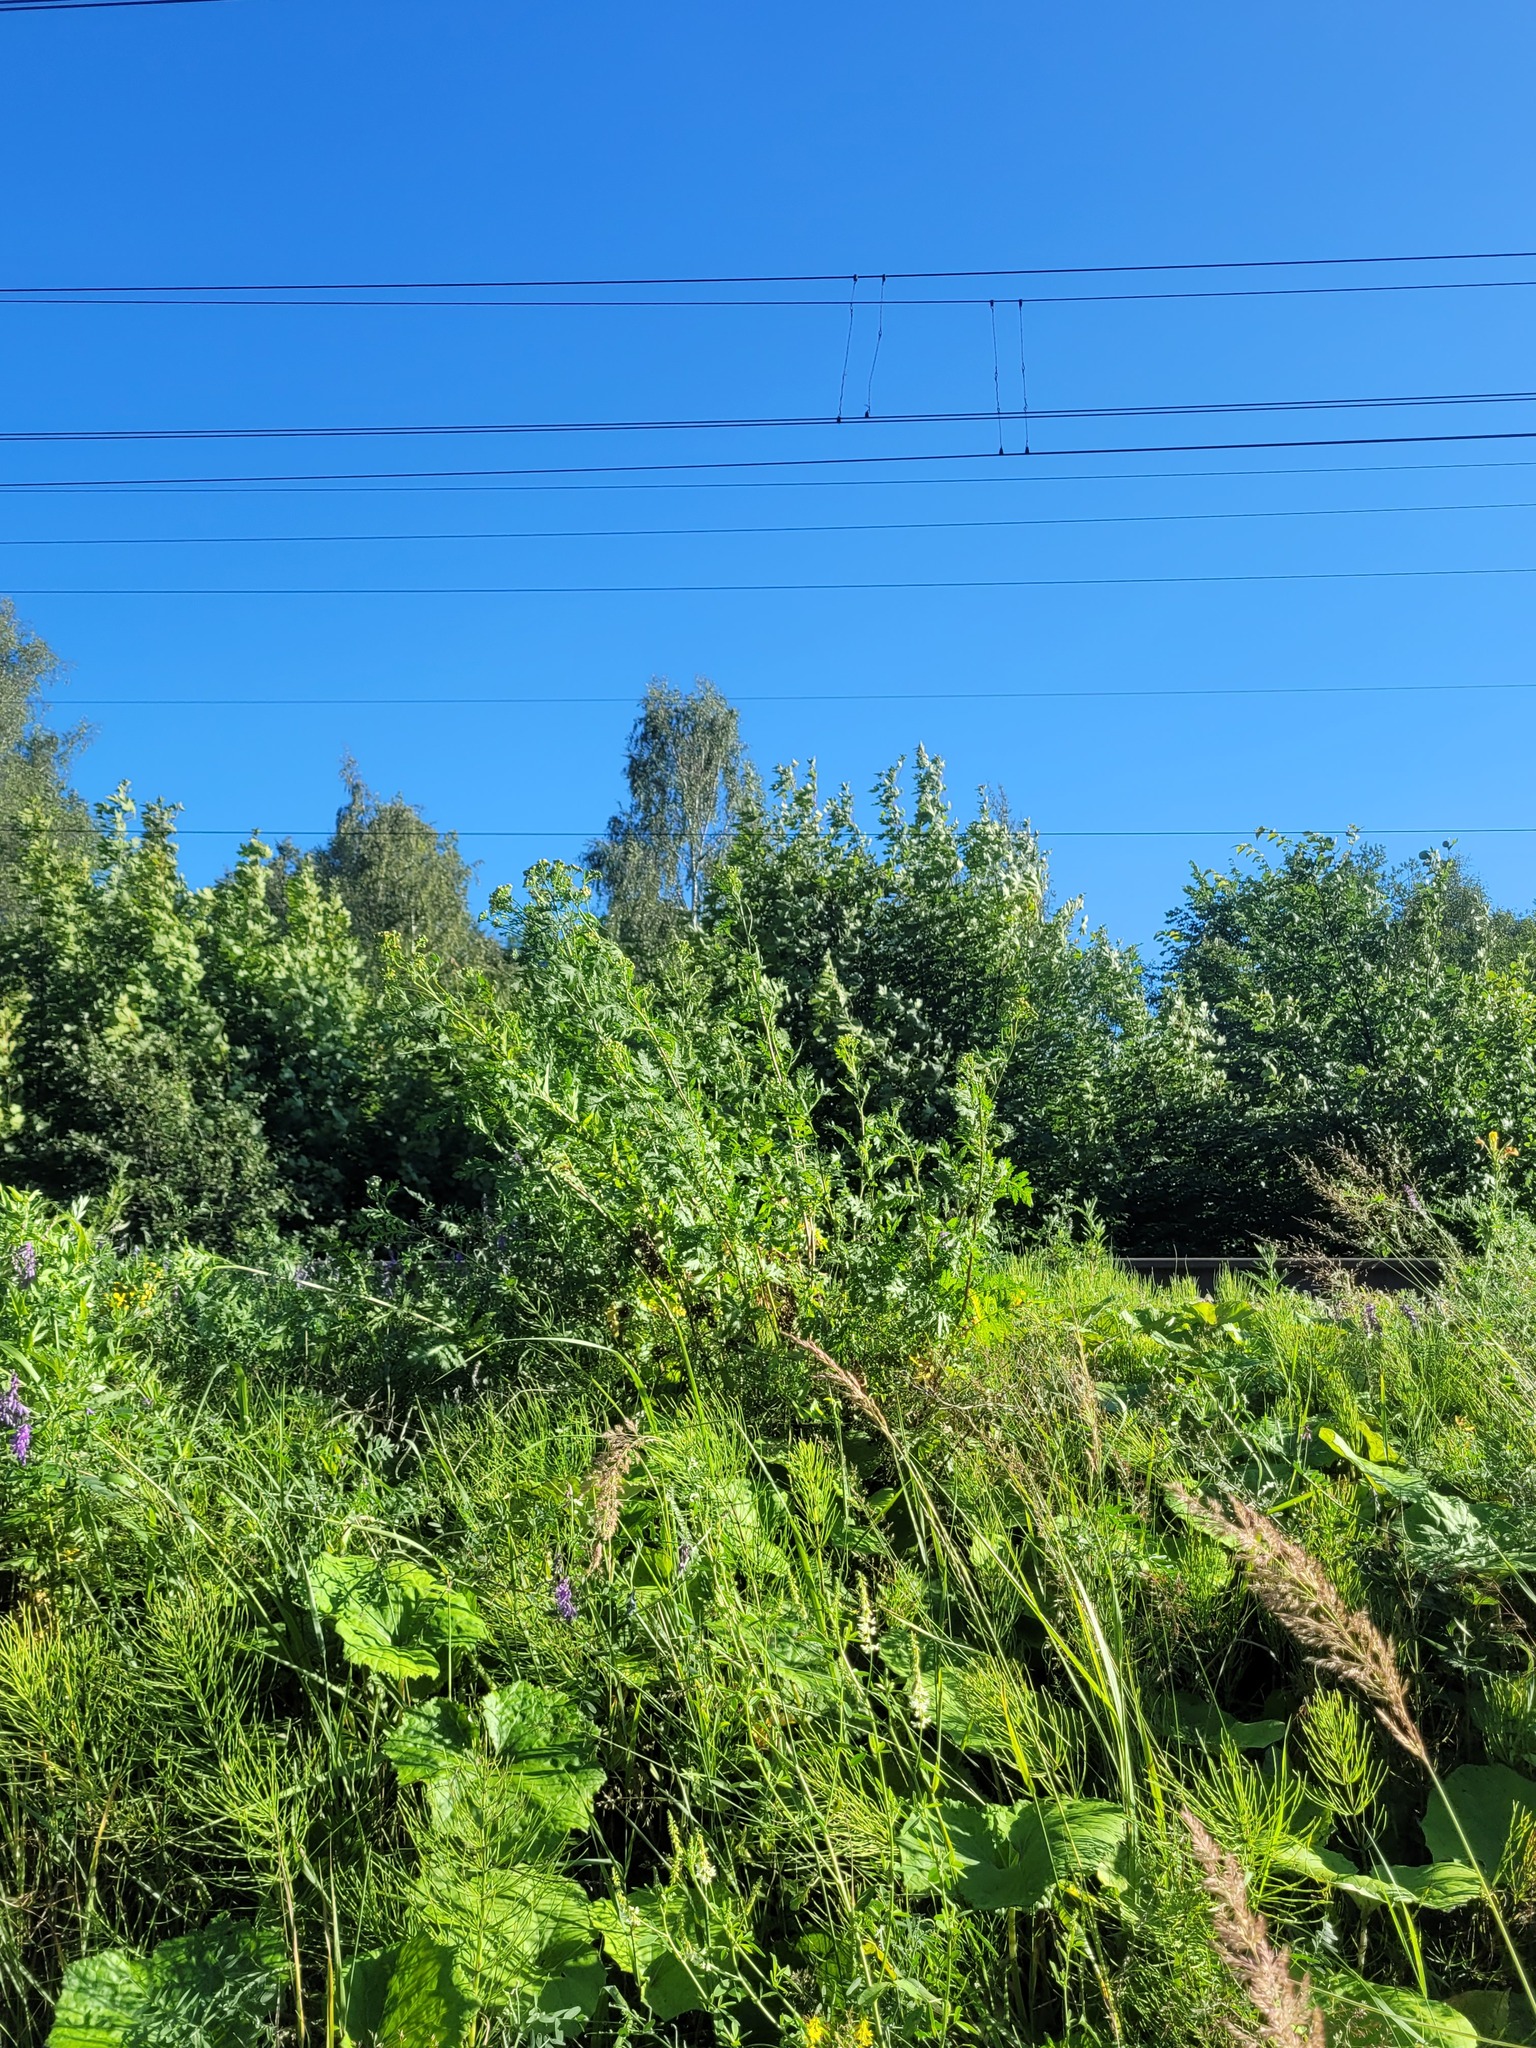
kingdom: Plantae
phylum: Tracheophyta
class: Magnoliopsida
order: Asterales
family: Asteraceae
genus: Tanacetum
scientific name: Tanacetum vulgare
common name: Common tansy
